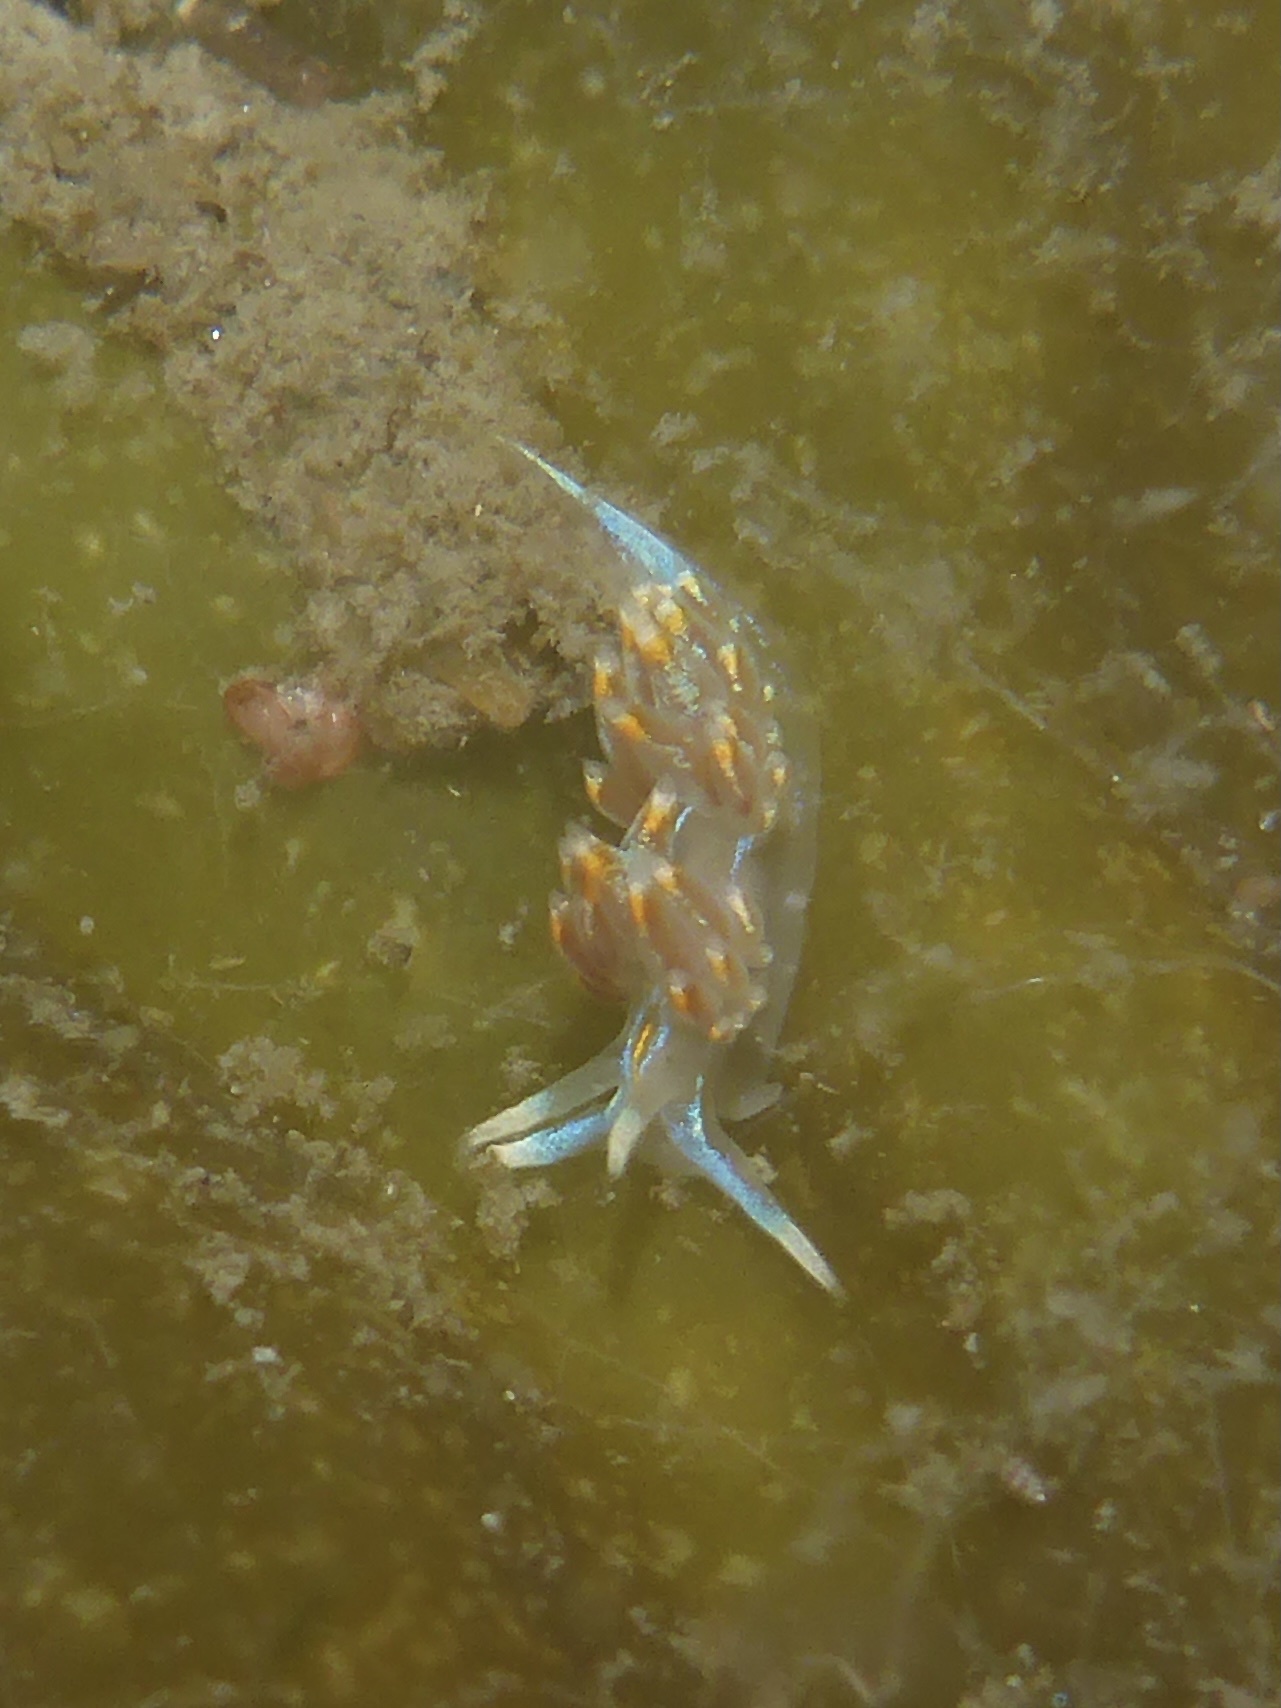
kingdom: Animalia
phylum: Mollusca
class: Gastropoda
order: Nudibranchia
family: Myrrhinidae
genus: Hermissenda
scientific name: Hermissenda opalescens
